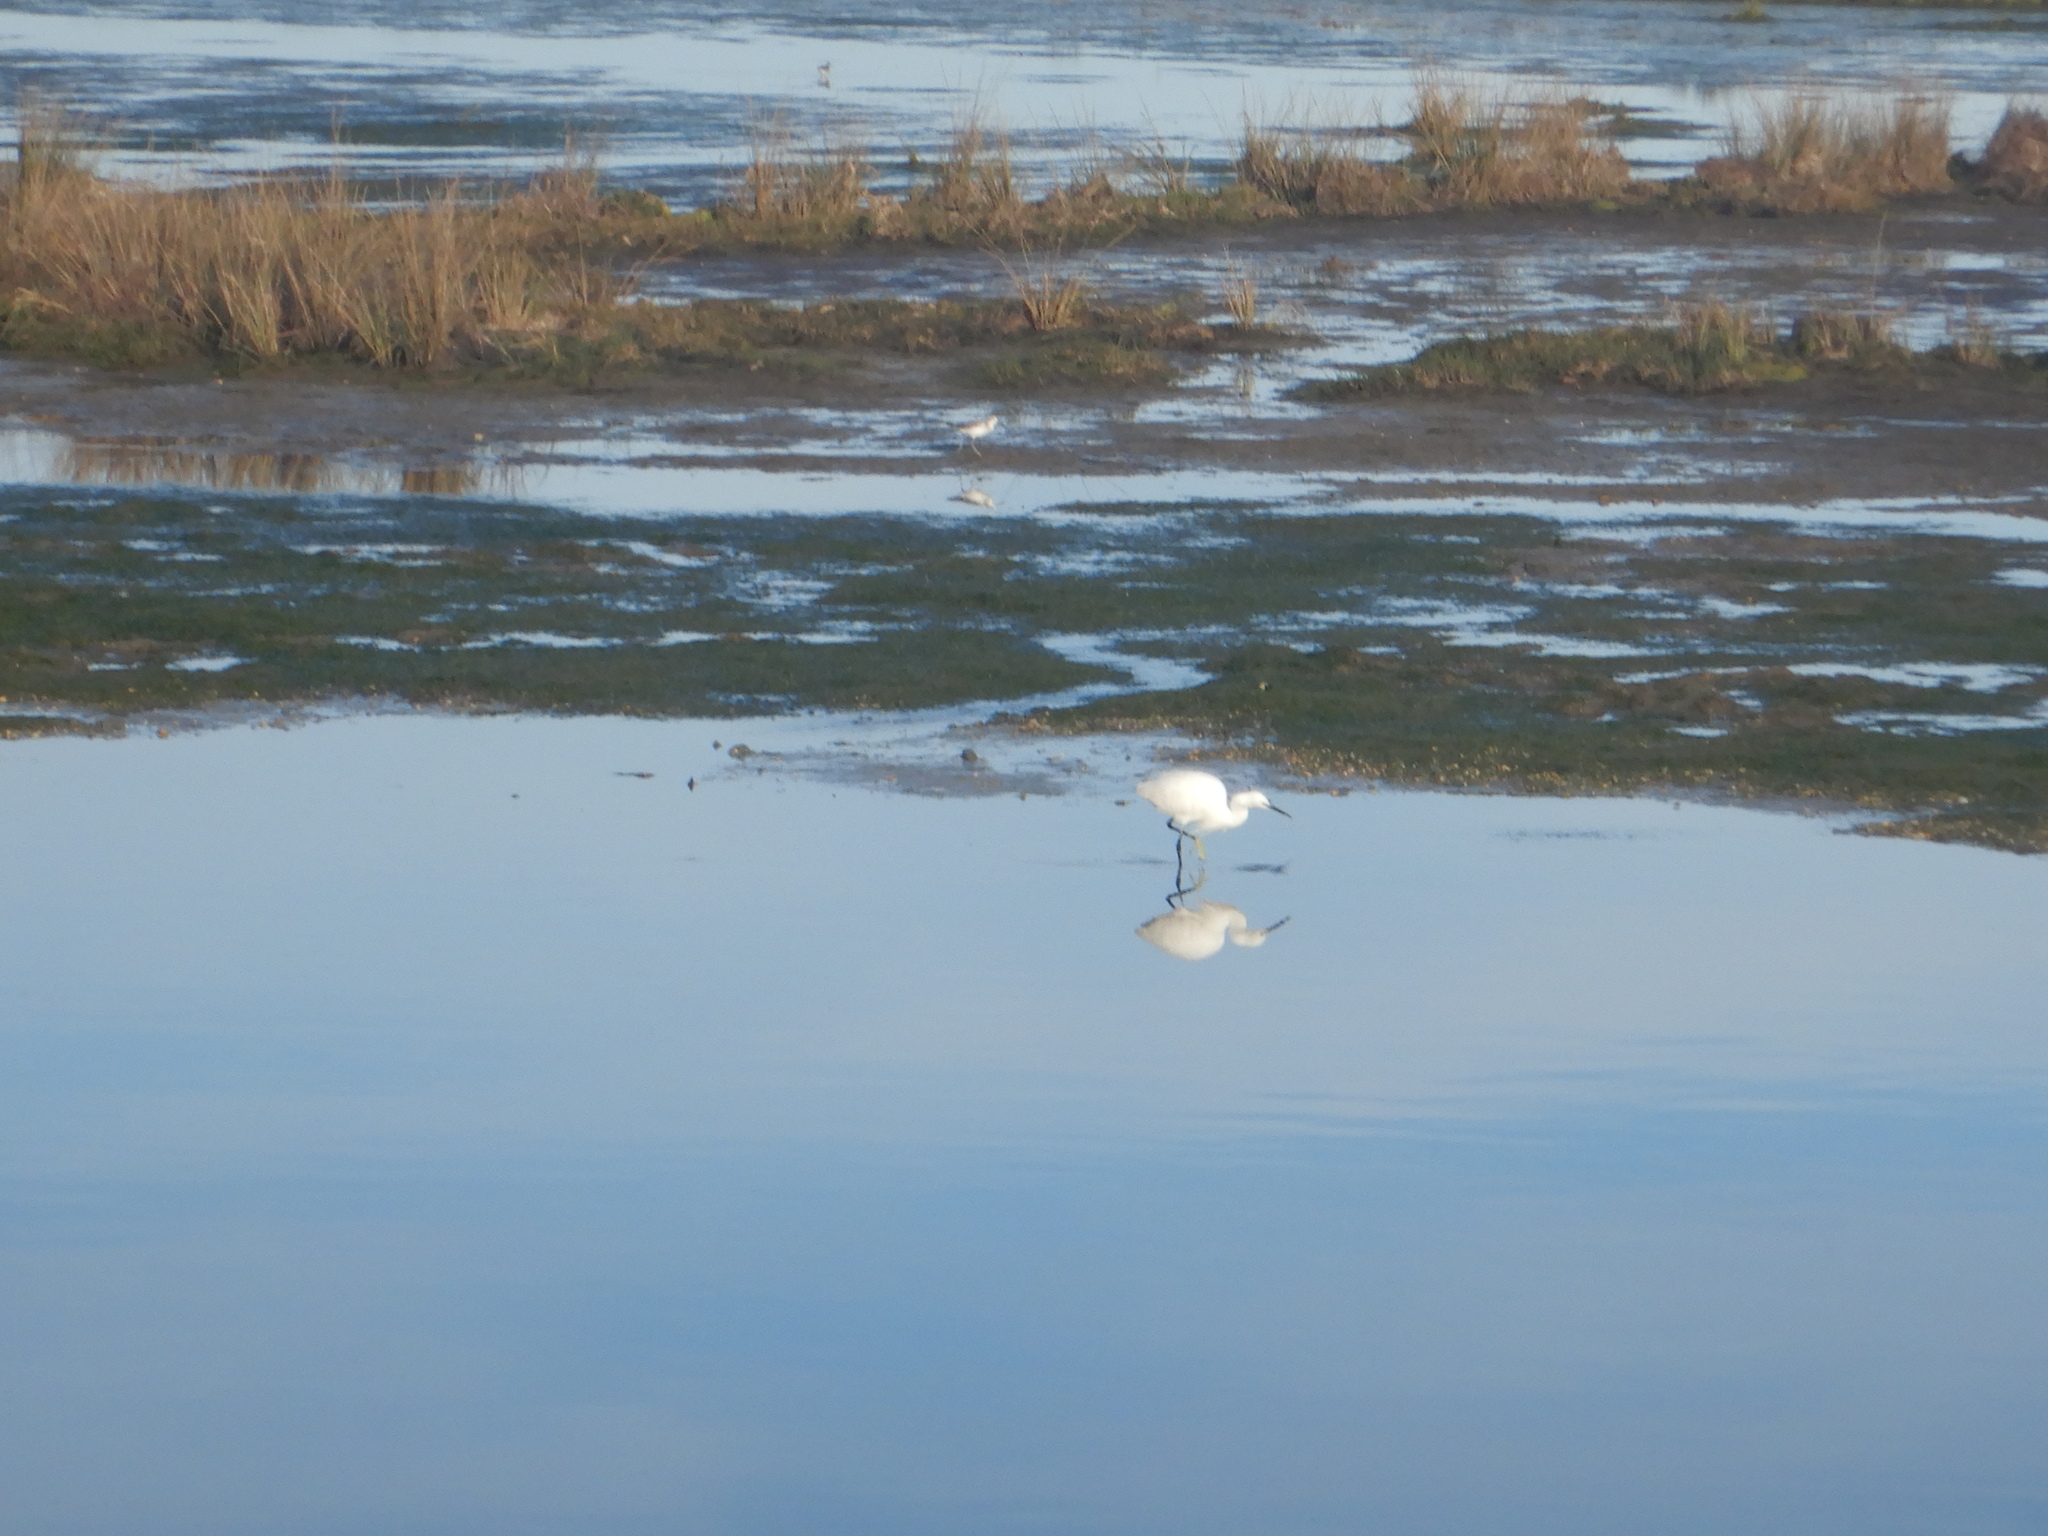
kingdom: Animalia
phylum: Chordata
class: Aves
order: Pelecaniformes
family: Ardeidae
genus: Egretta
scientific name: Egretta garzetta
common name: Little egret
